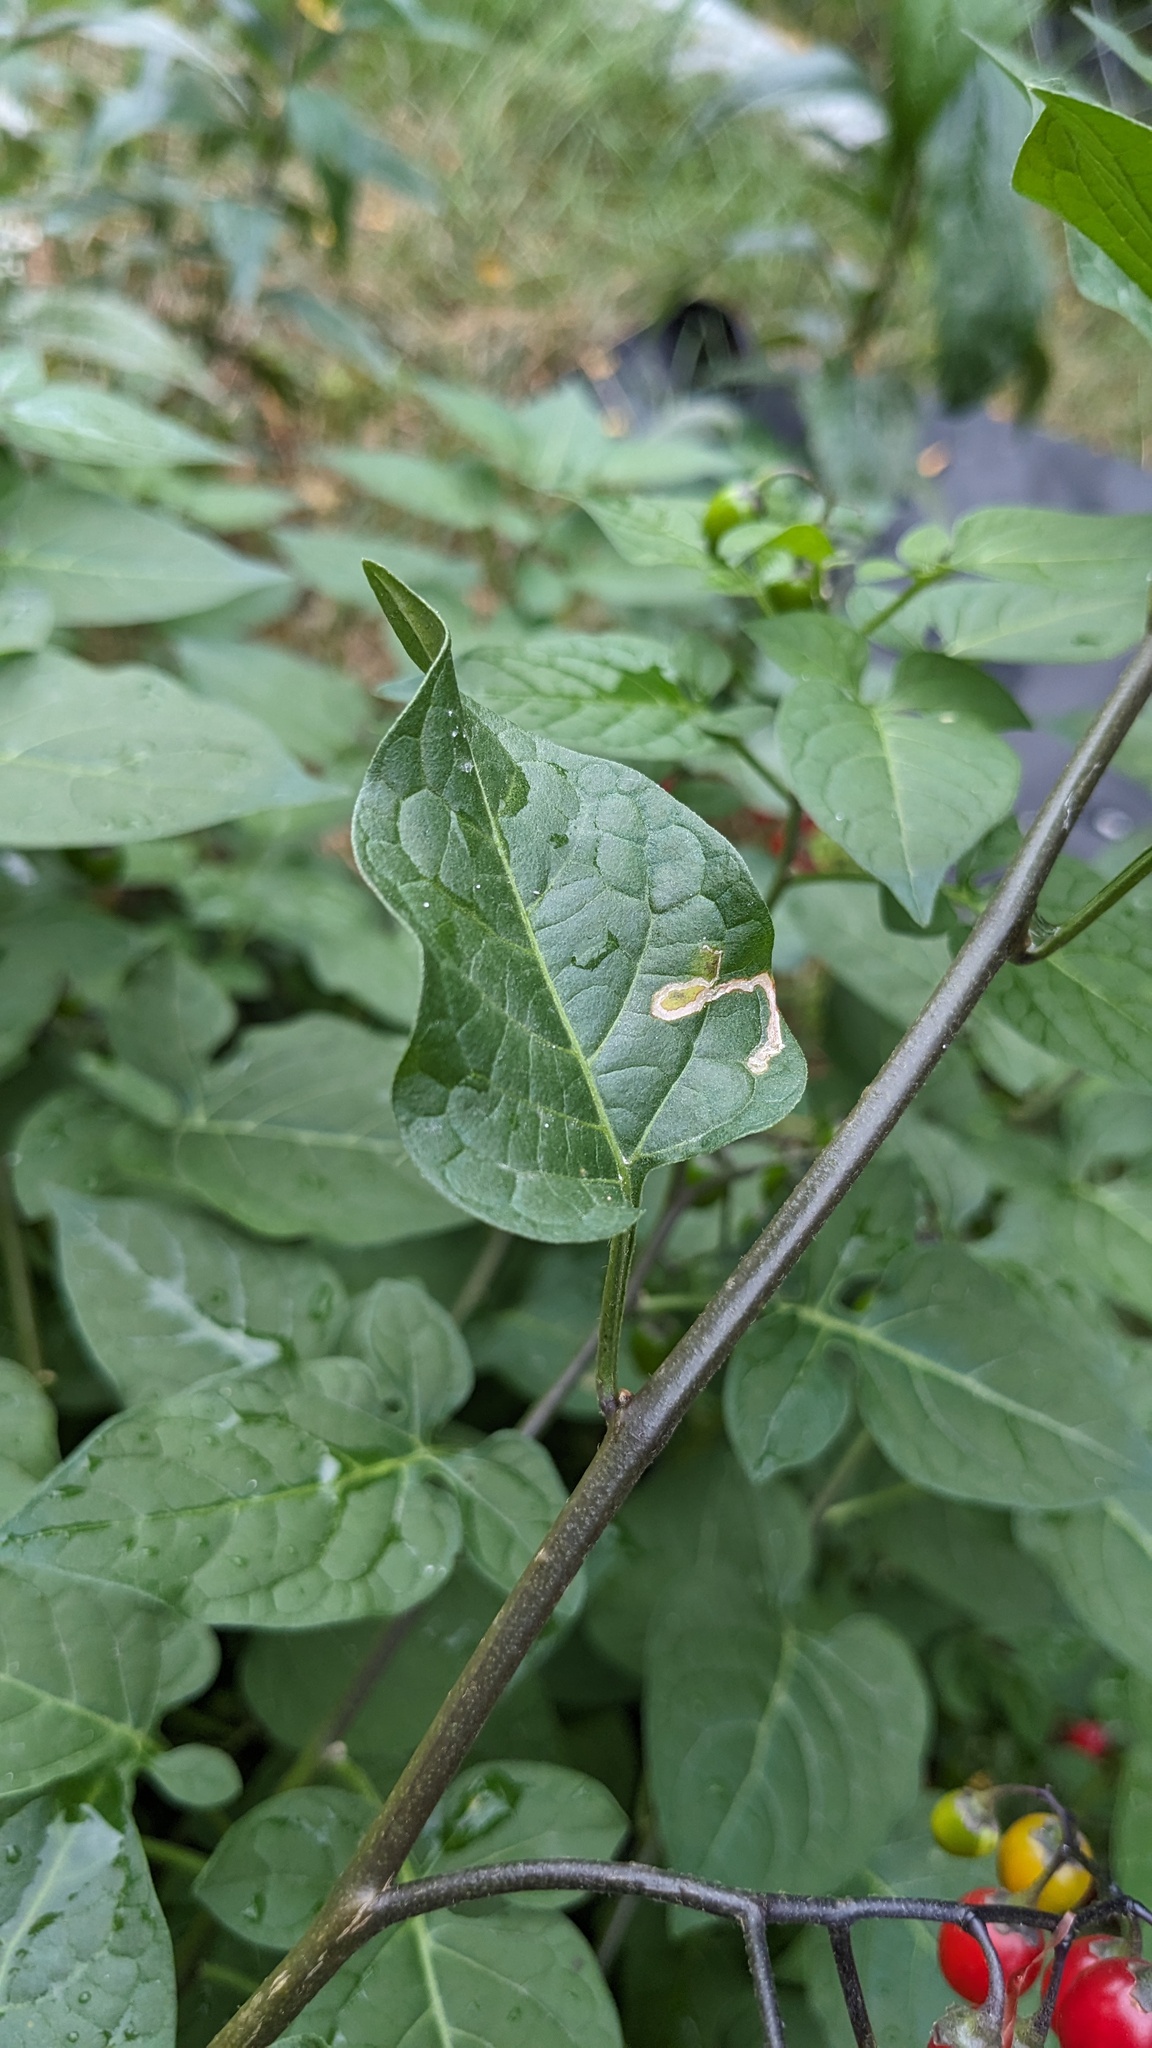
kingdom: Animalia
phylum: Arthropoda
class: Insecta
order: Diptera
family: Agromyzidae
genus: Liriomyza
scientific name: Liriomyza
